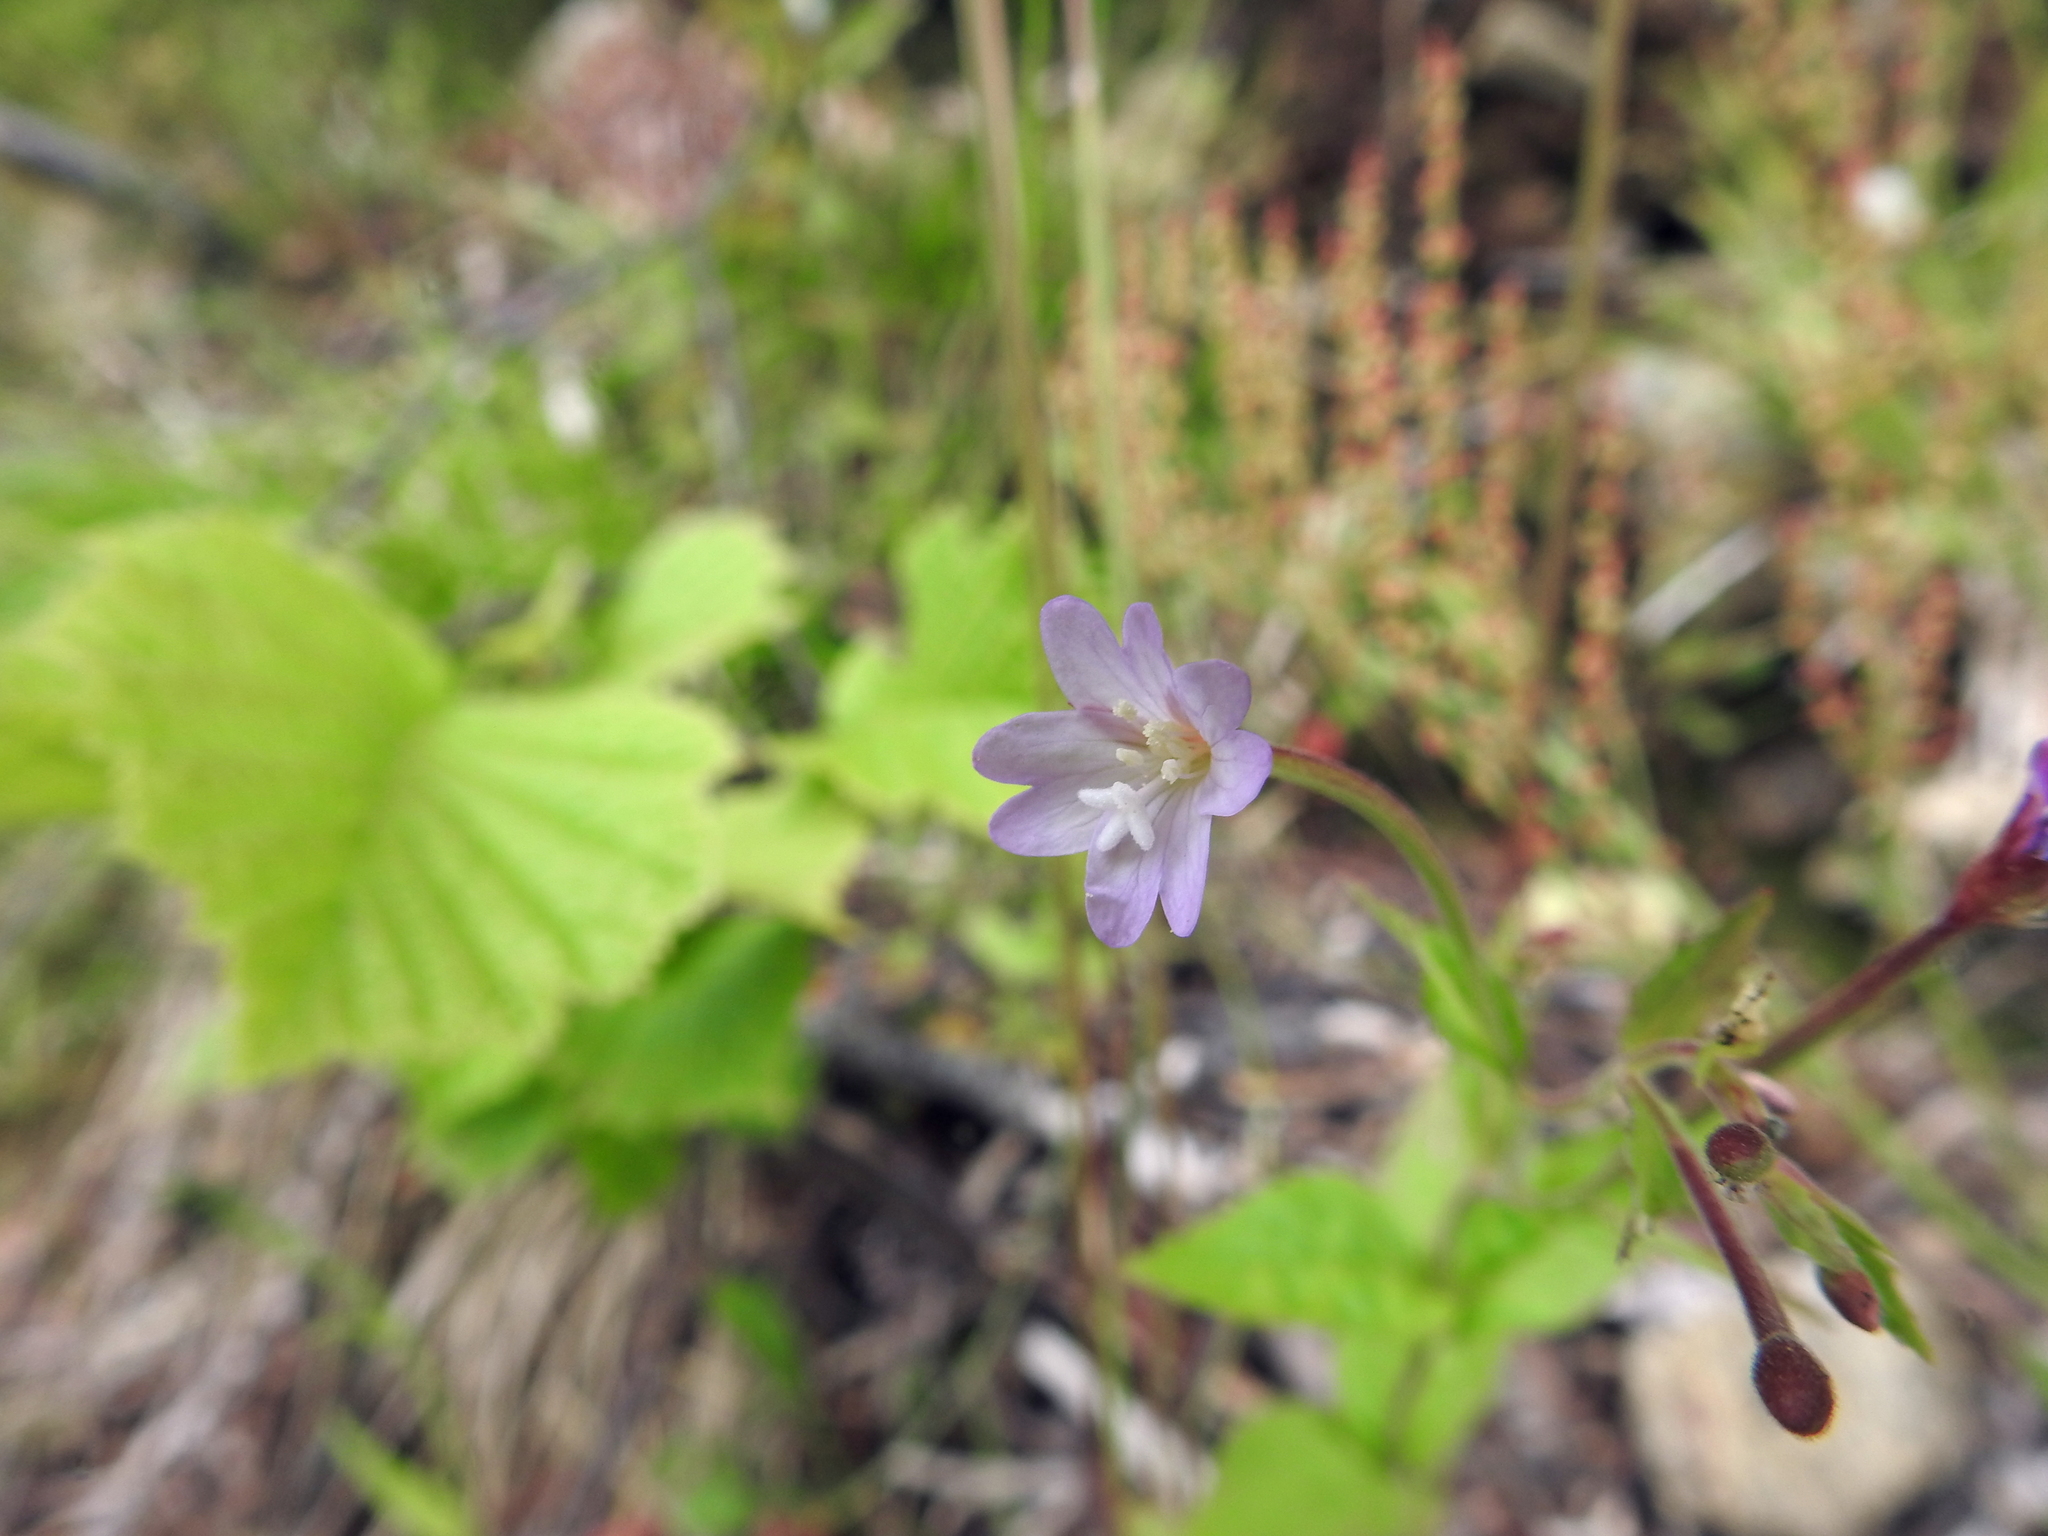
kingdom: Plantae
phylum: Tracheophyta
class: Magnoliopsida
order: Myrtales
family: Onagraceae
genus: Epilobium
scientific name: Epilobium montanum
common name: Broad-leaved willowherb
